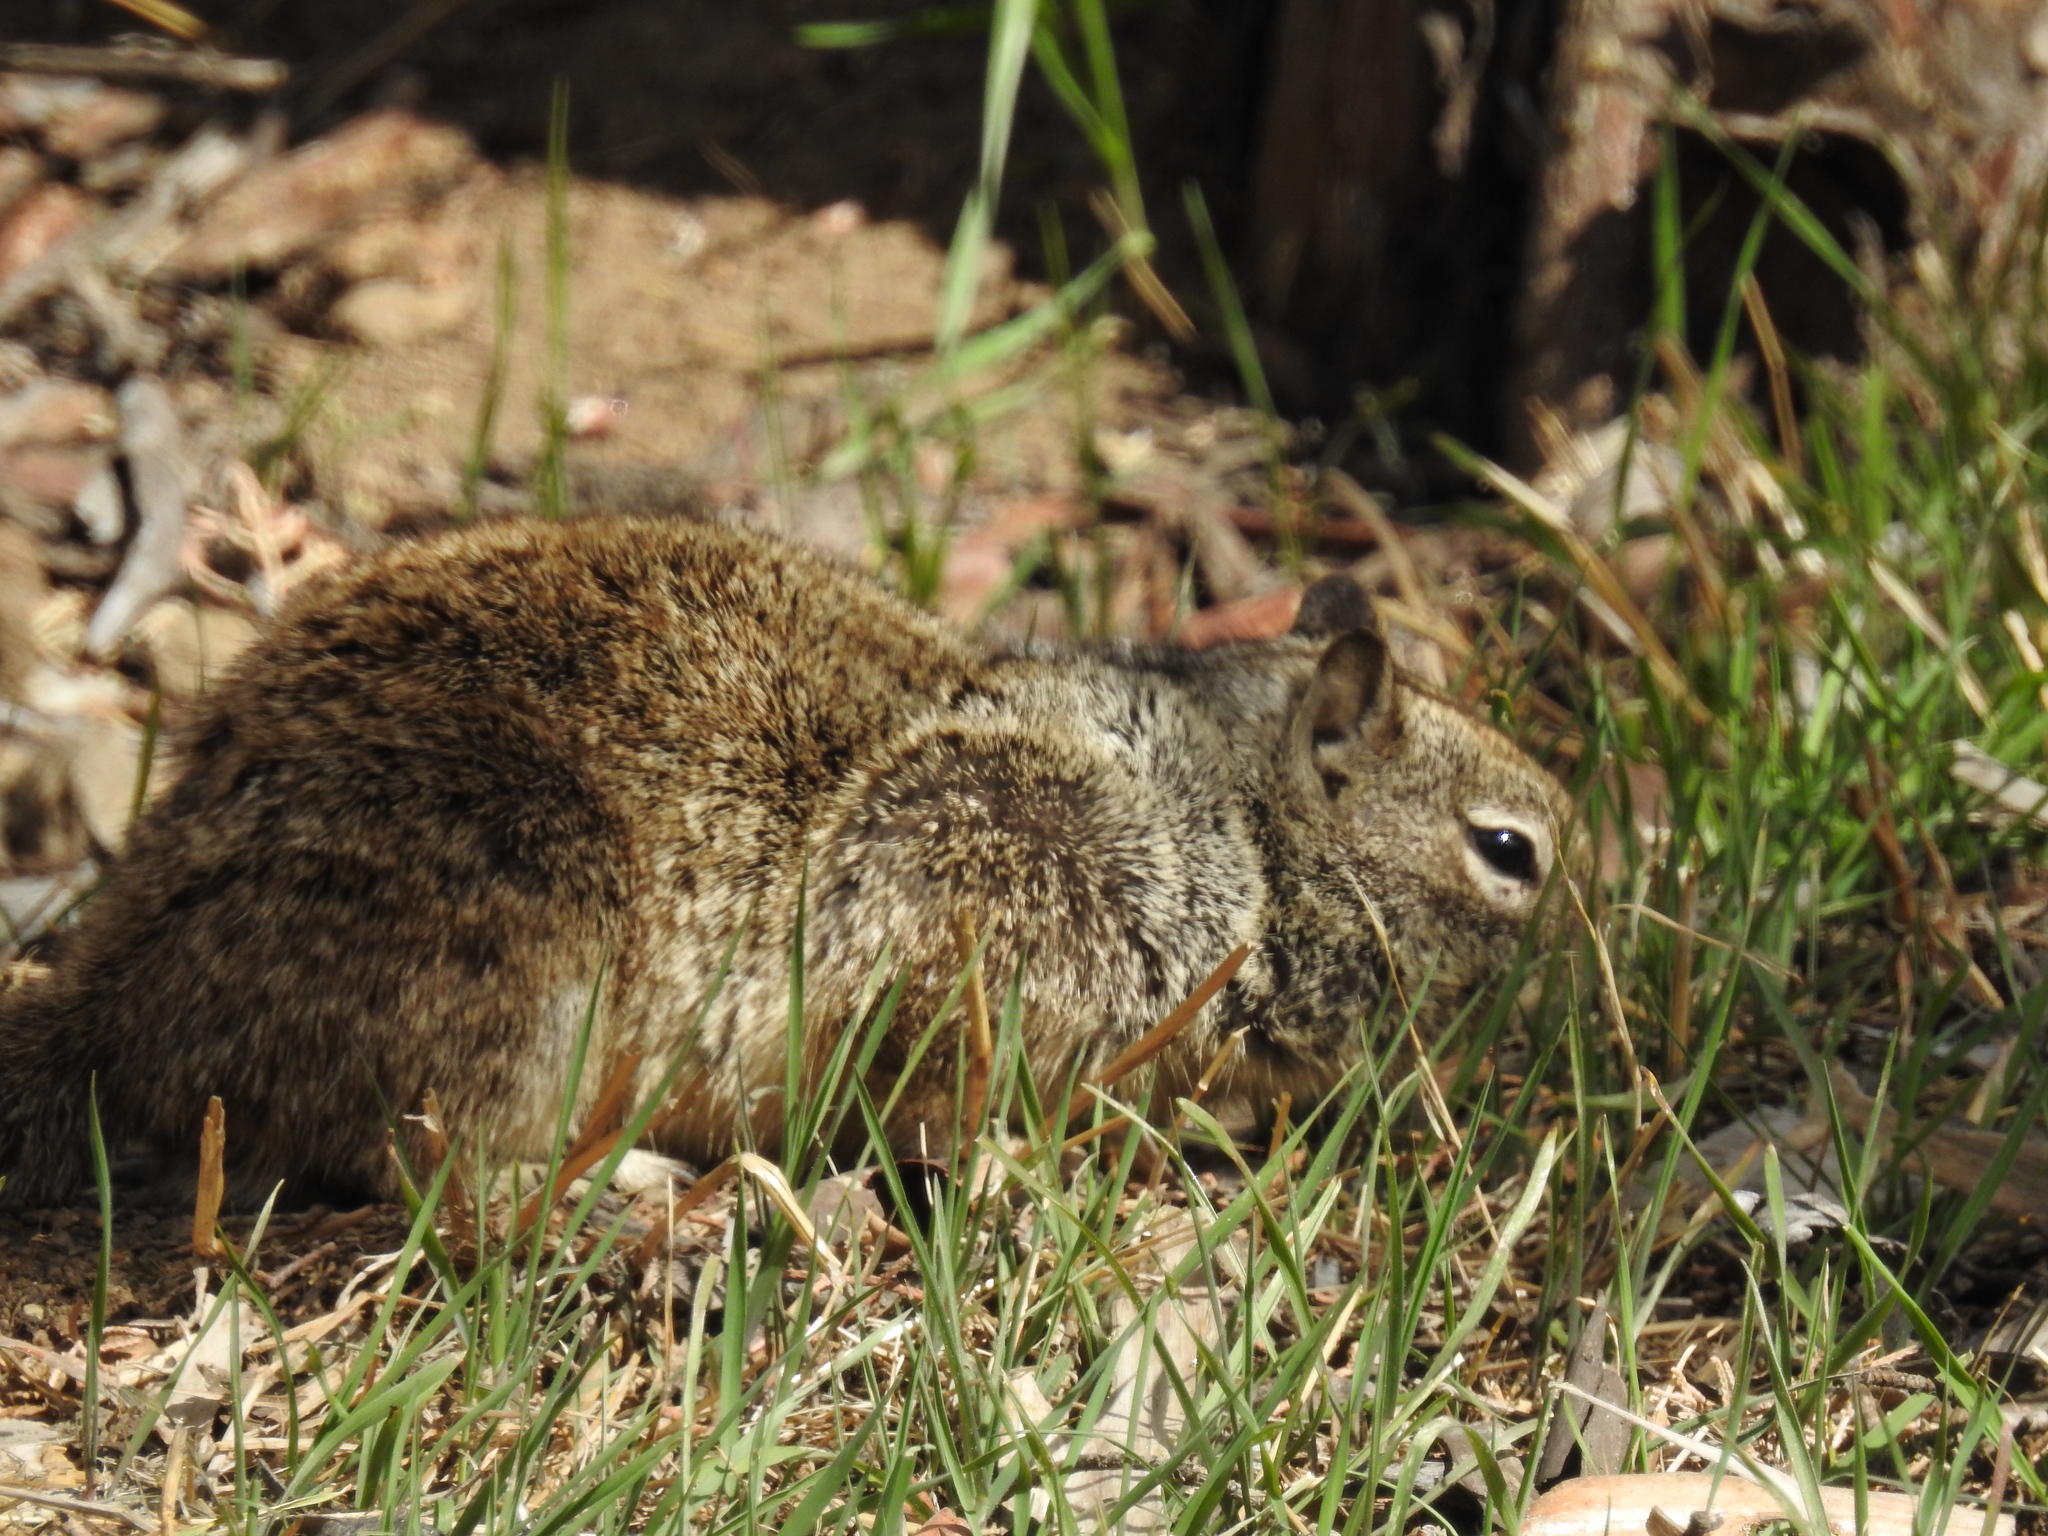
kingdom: Animalia
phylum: Chordata
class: Mammalia
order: Rodentia
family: Sciuridae
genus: Otospermophilus
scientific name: Otospermophilus beecheyi
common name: California ground squirrel
